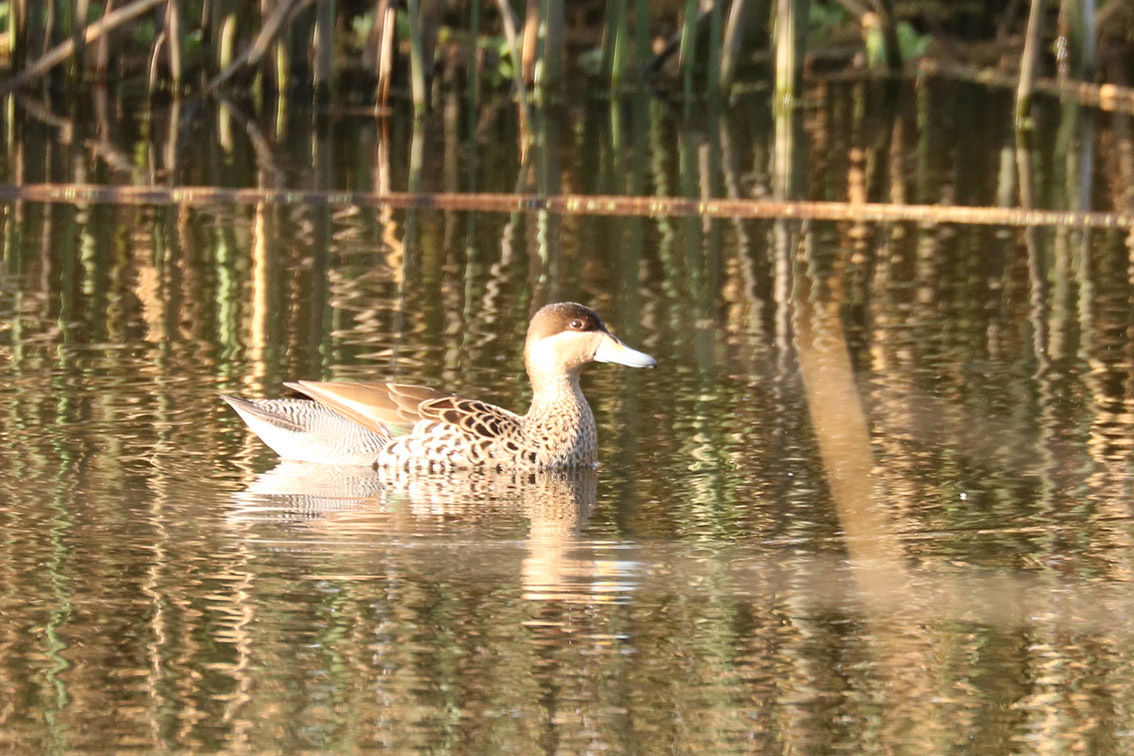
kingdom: Animalia
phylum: Chordata
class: Aves
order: Anseriformes
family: Anatidae
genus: Spatula
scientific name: Spatula versicolor
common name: Silver teal
